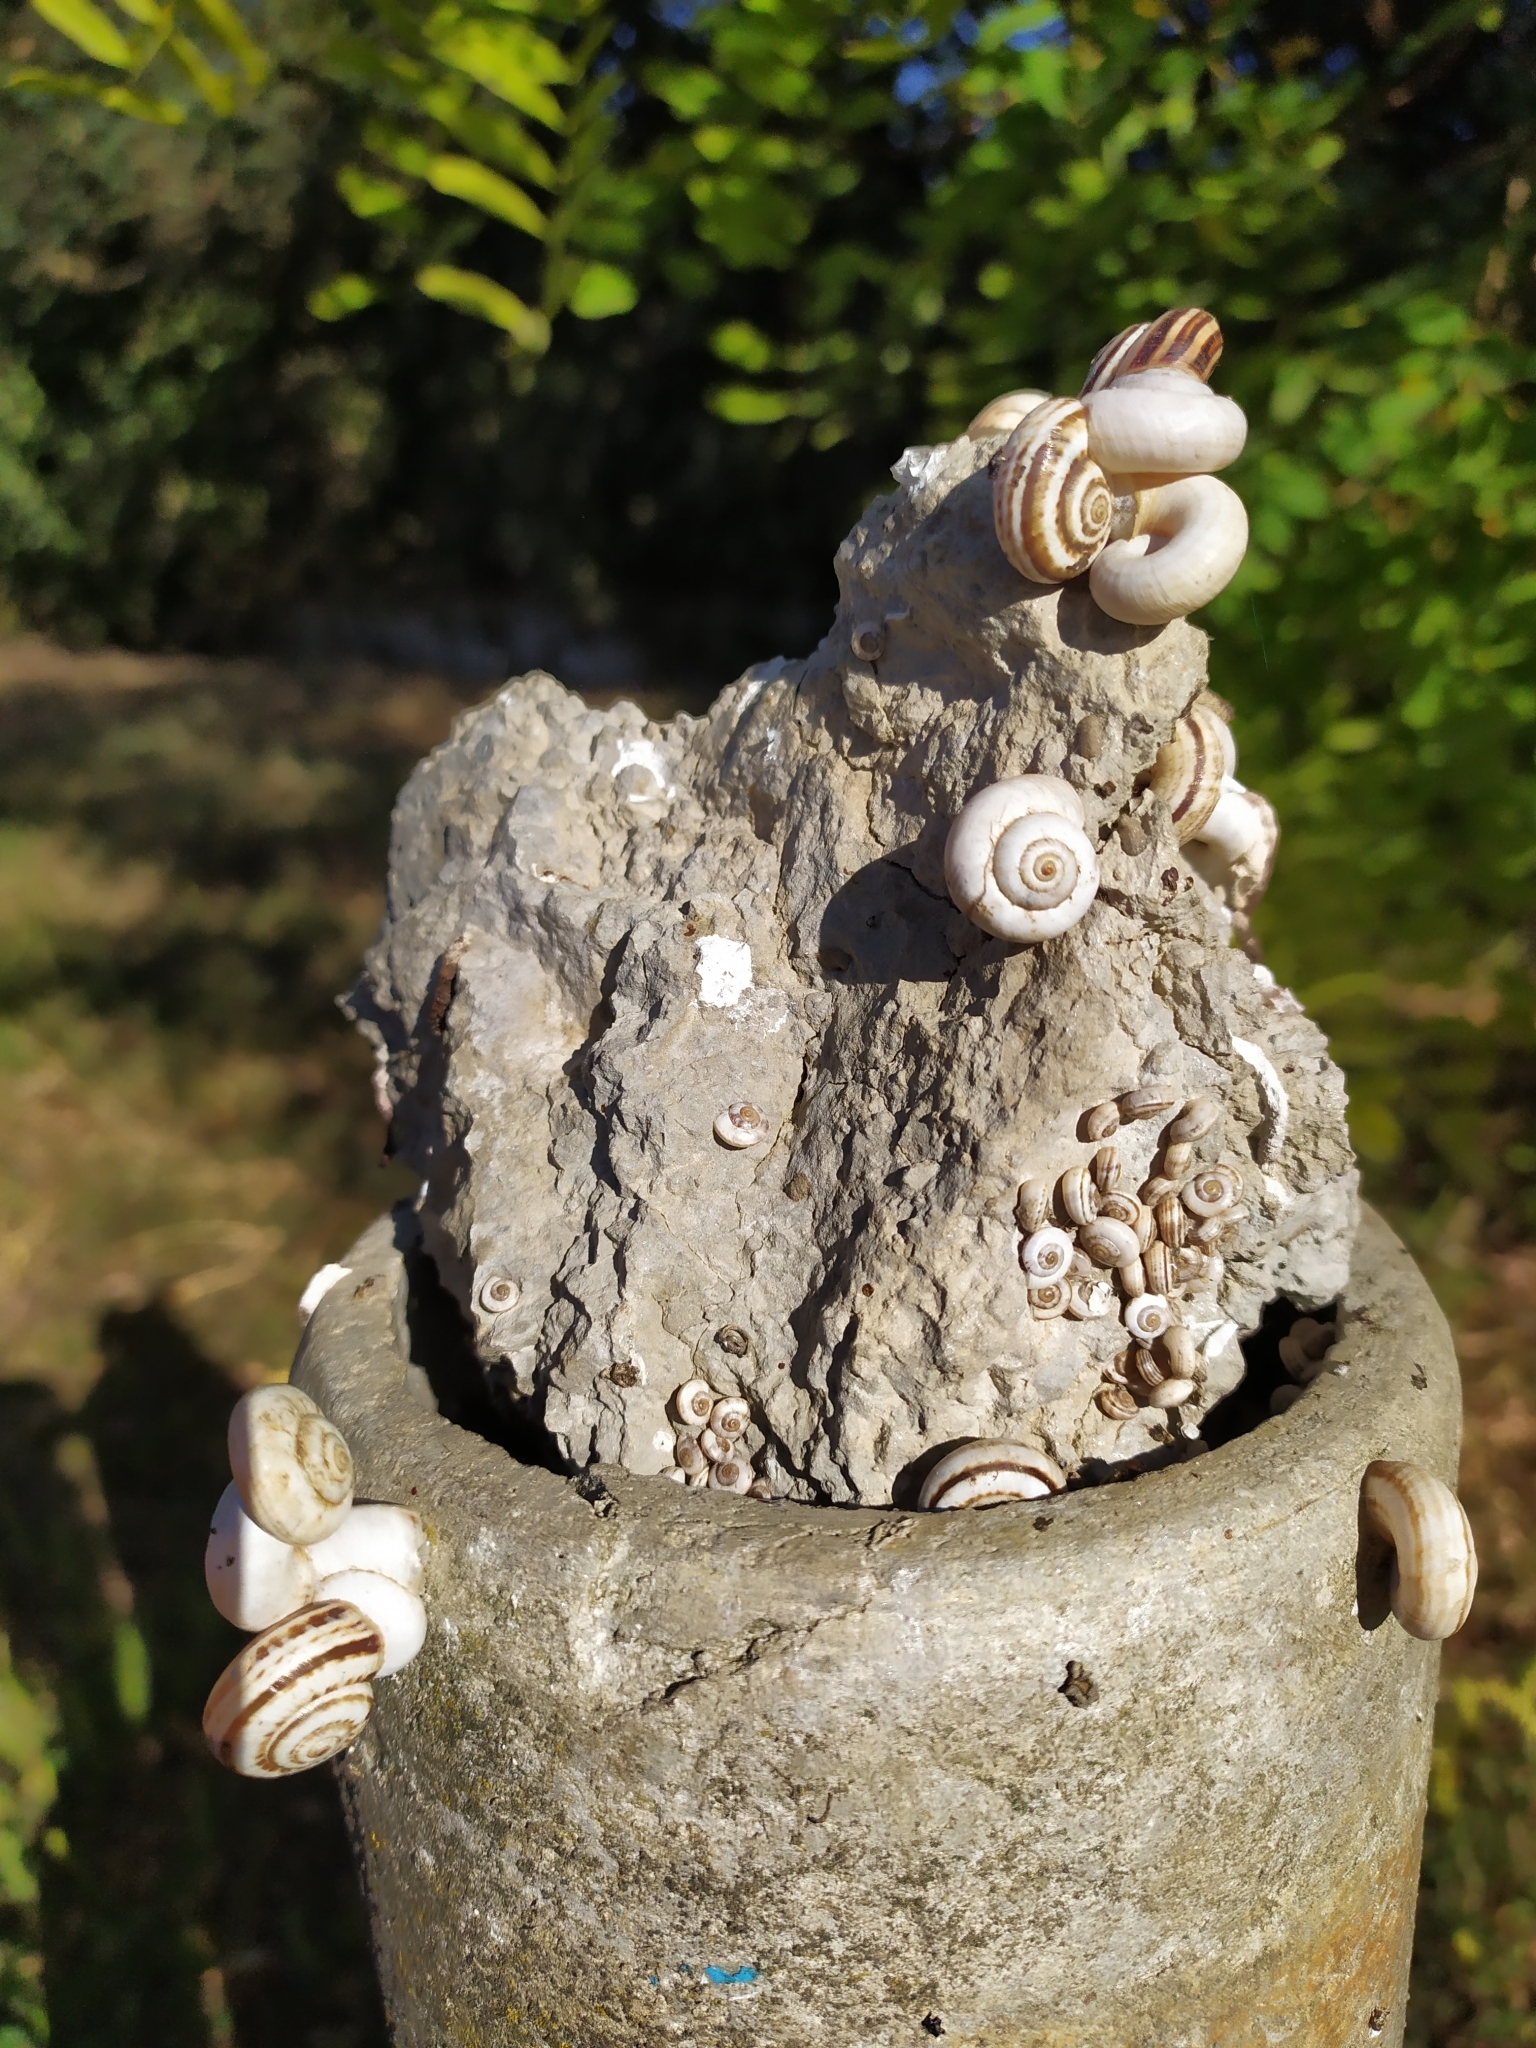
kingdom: Animalia
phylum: Mollusca
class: Gastropoda
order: Stylommatophora
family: Geomitridae
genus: Xeropicta
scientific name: Xeropicta derbentina
